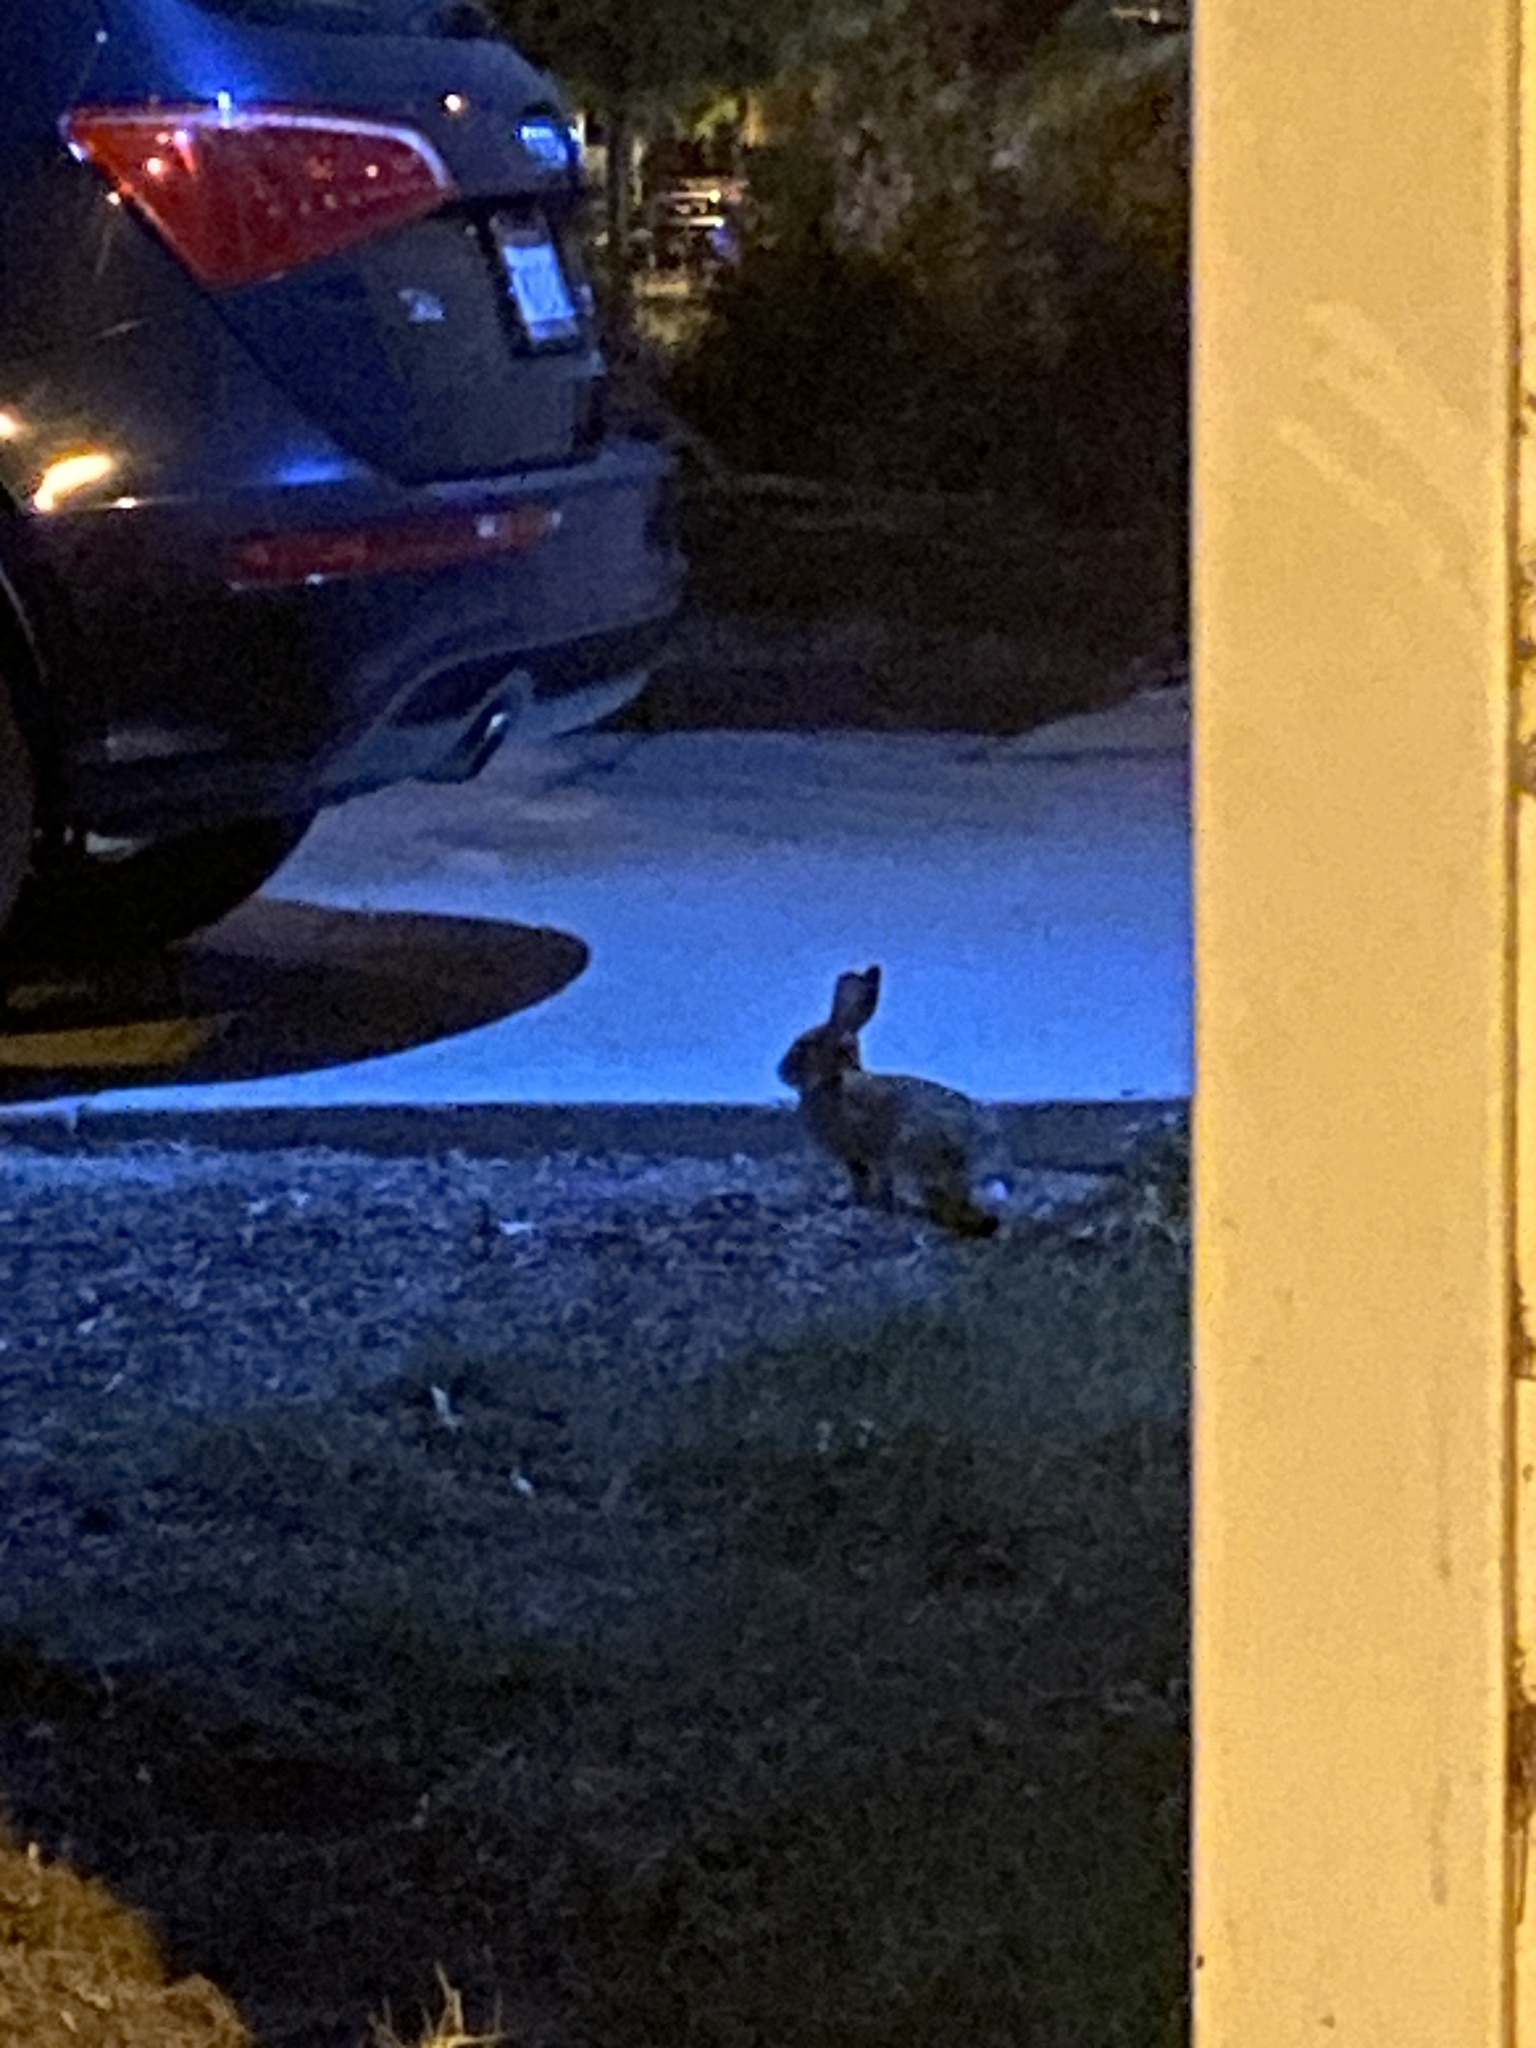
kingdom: Animalia
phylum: Chordata
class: Mammalia
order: Lagomorpha
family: Leporidae
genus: Sylvilagus
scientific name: Sylvilagus audubonii
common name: Desert cottontail
